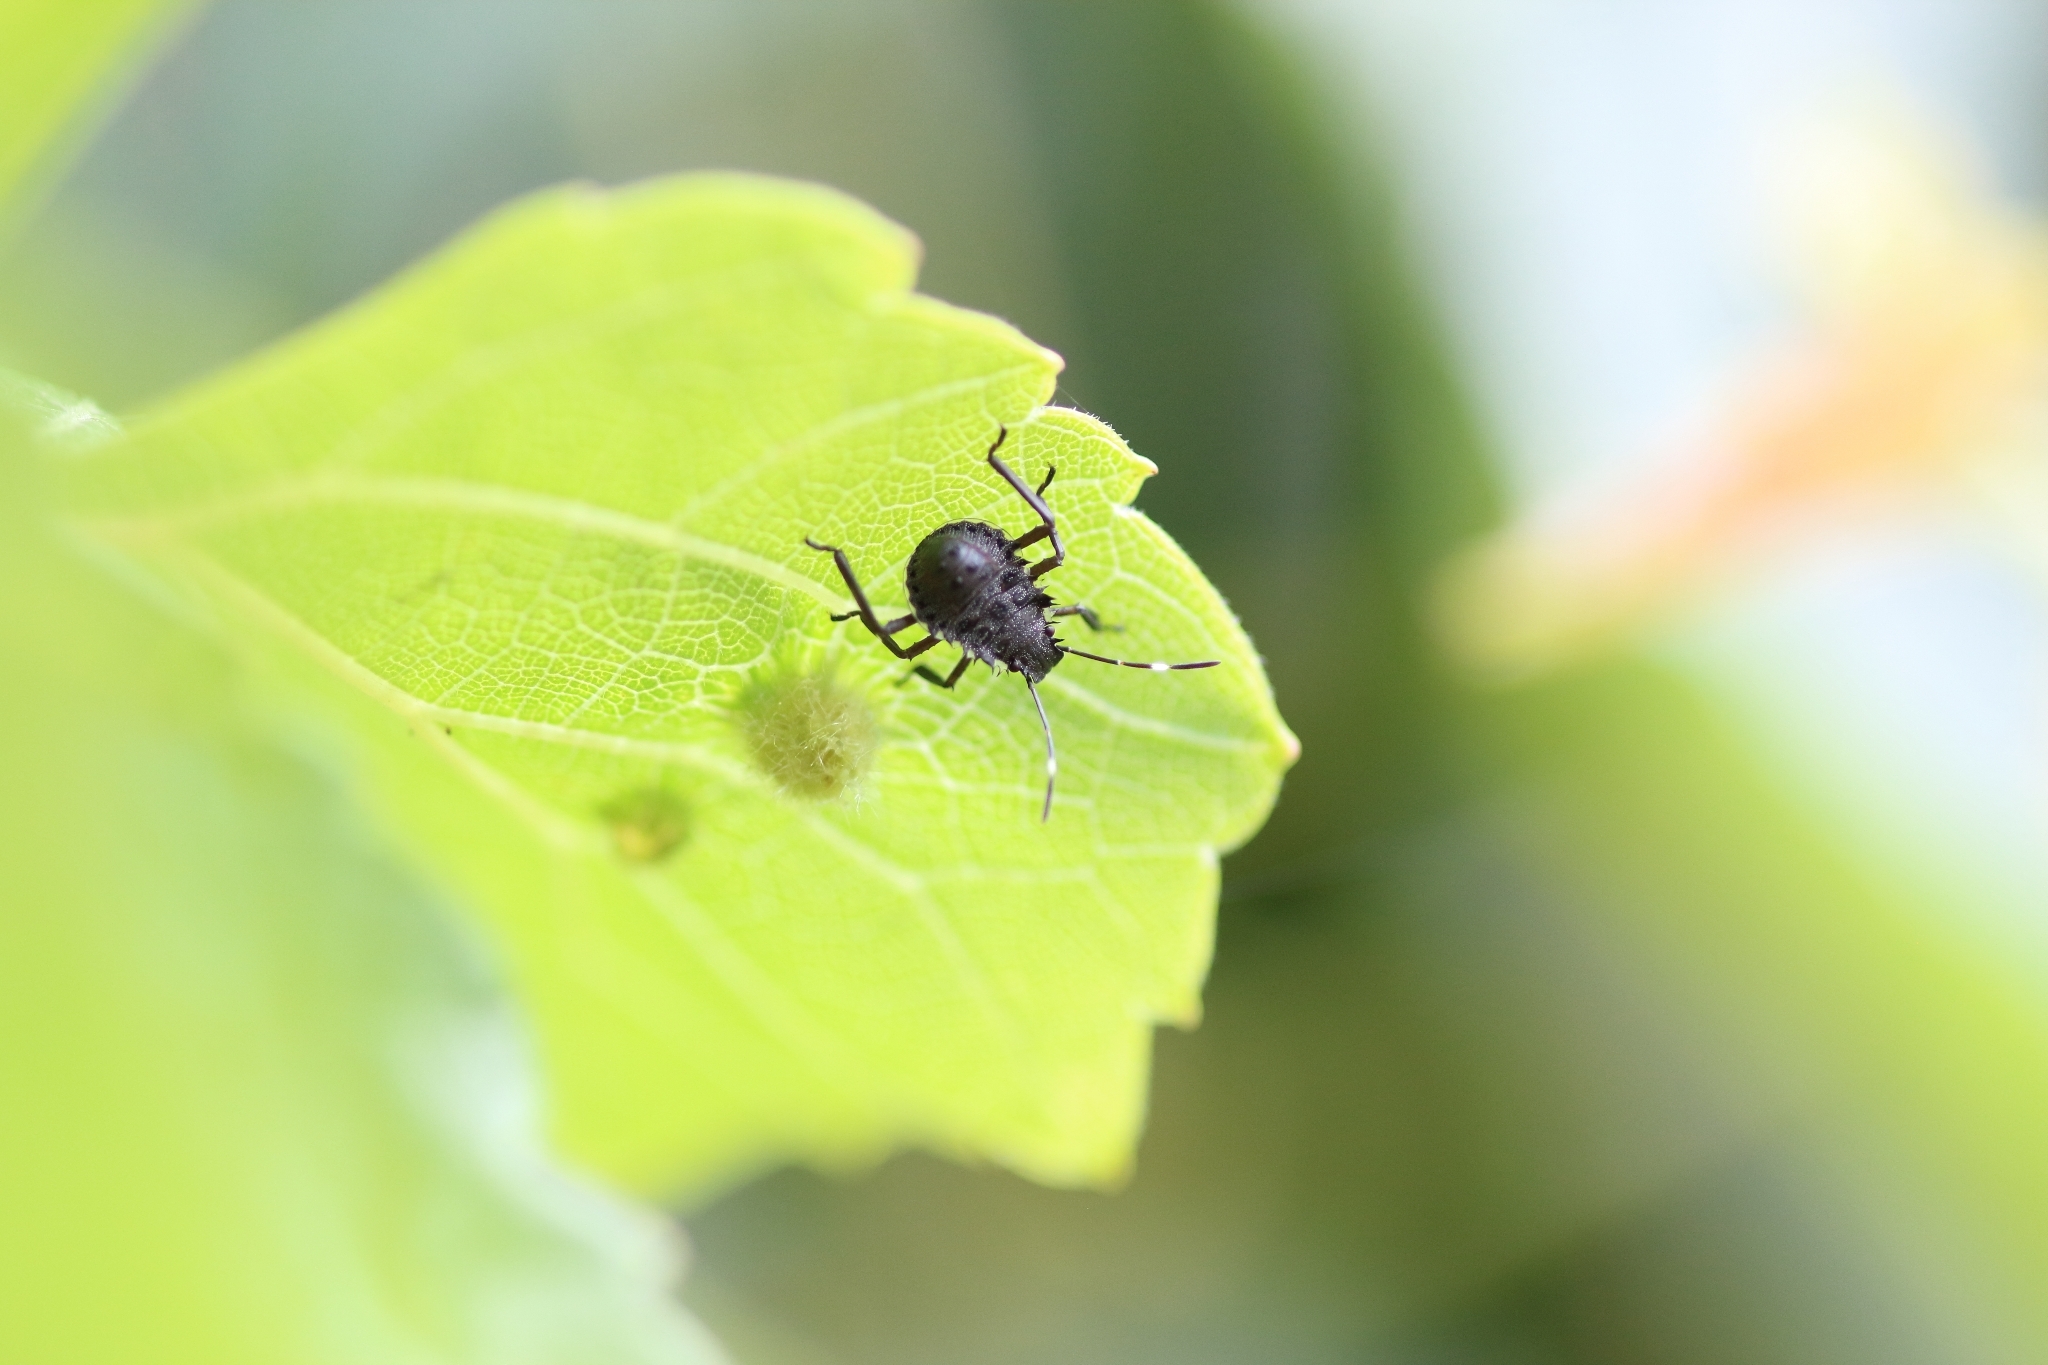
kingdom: Animalia
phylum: Arthropoda
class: Insecta
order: Hemiptera
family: Pentatomidae
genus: Halyomorpha
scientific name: Halyomorpha halys
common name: Brown marmorated stink bug
